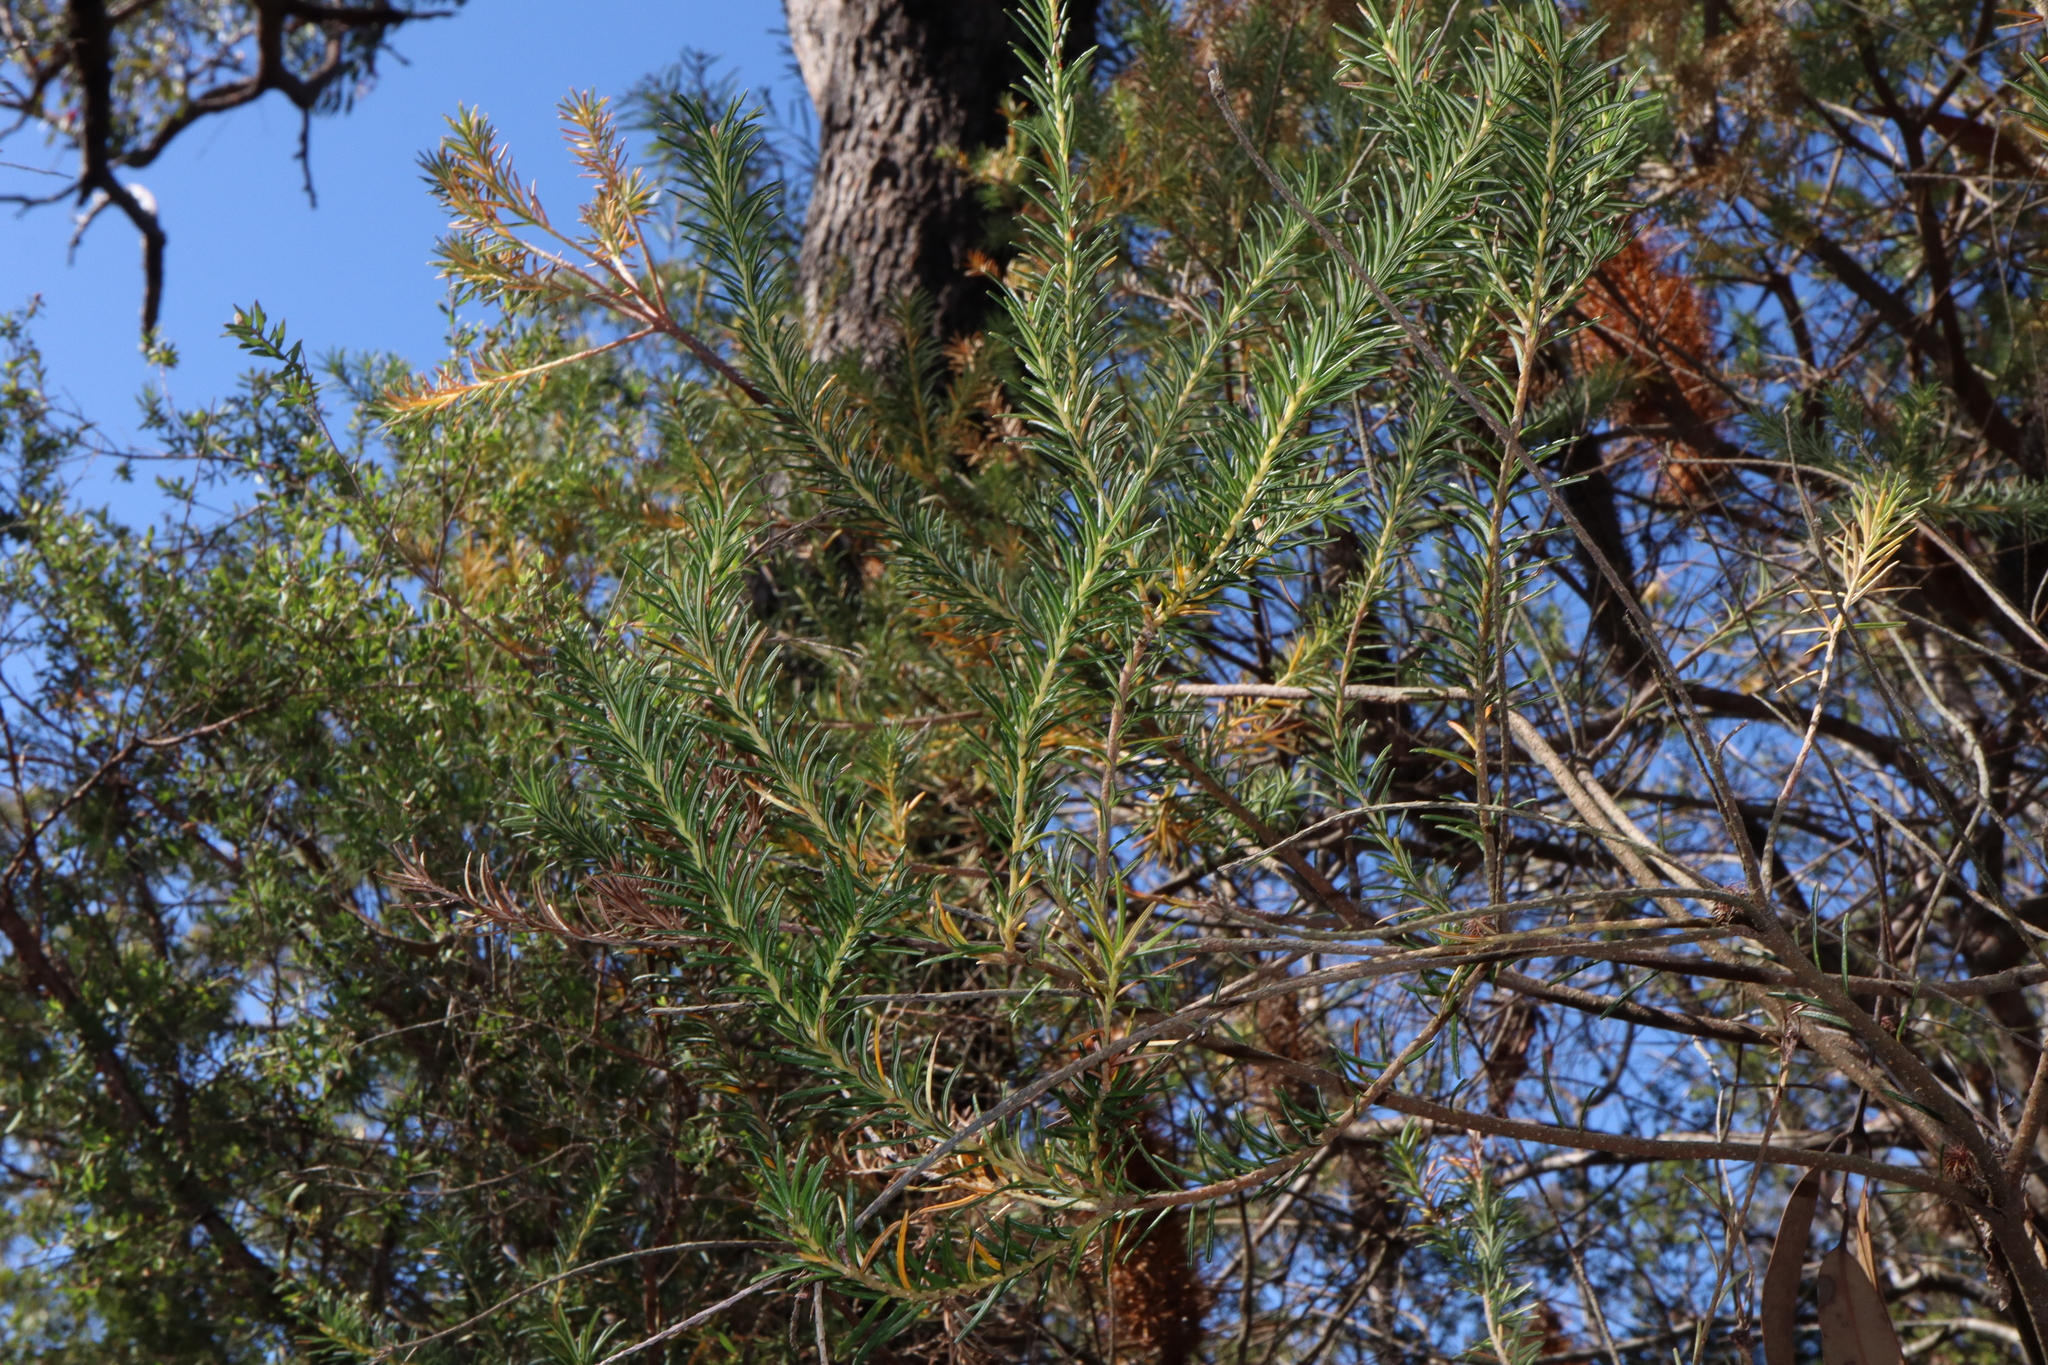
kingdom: Plantae
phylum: Tracheophyta
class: Magnoliopsida
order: Proteales
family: Proteaceae
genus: Banksia
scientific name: Banksia ericifolia
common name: Heath-leaf banksia
